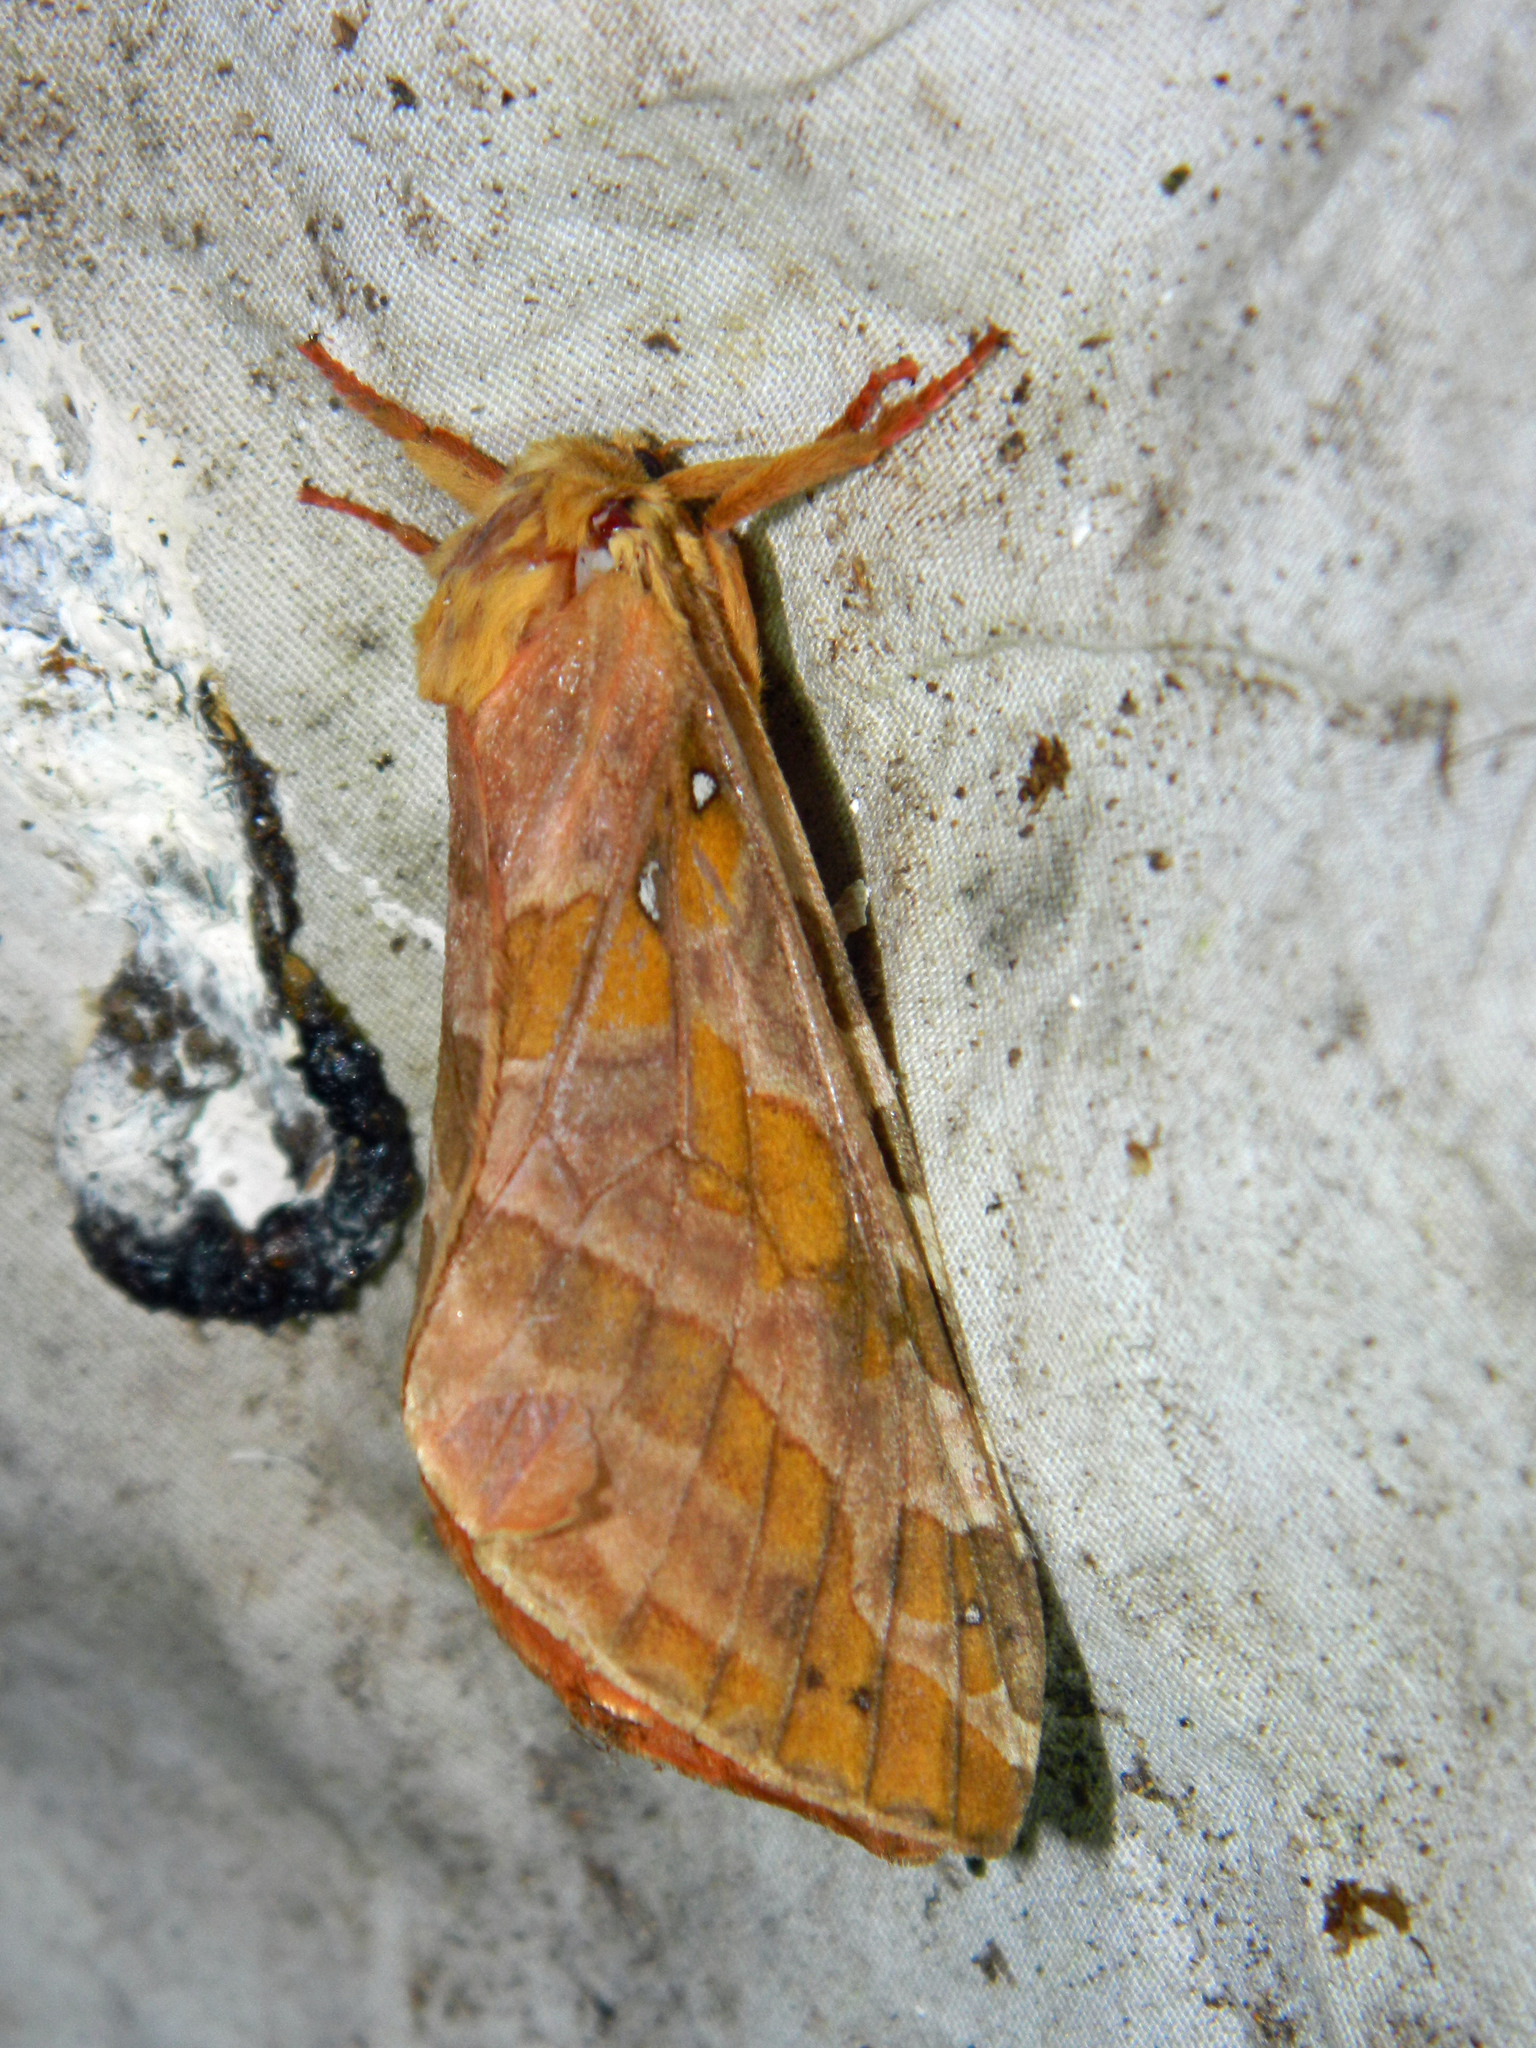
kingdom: Animalia
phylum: Arthropoda
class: Insecta
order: Lepidoptera
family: Hepialidae
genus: Sthenopis
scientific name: Sthenopis purpurascens
